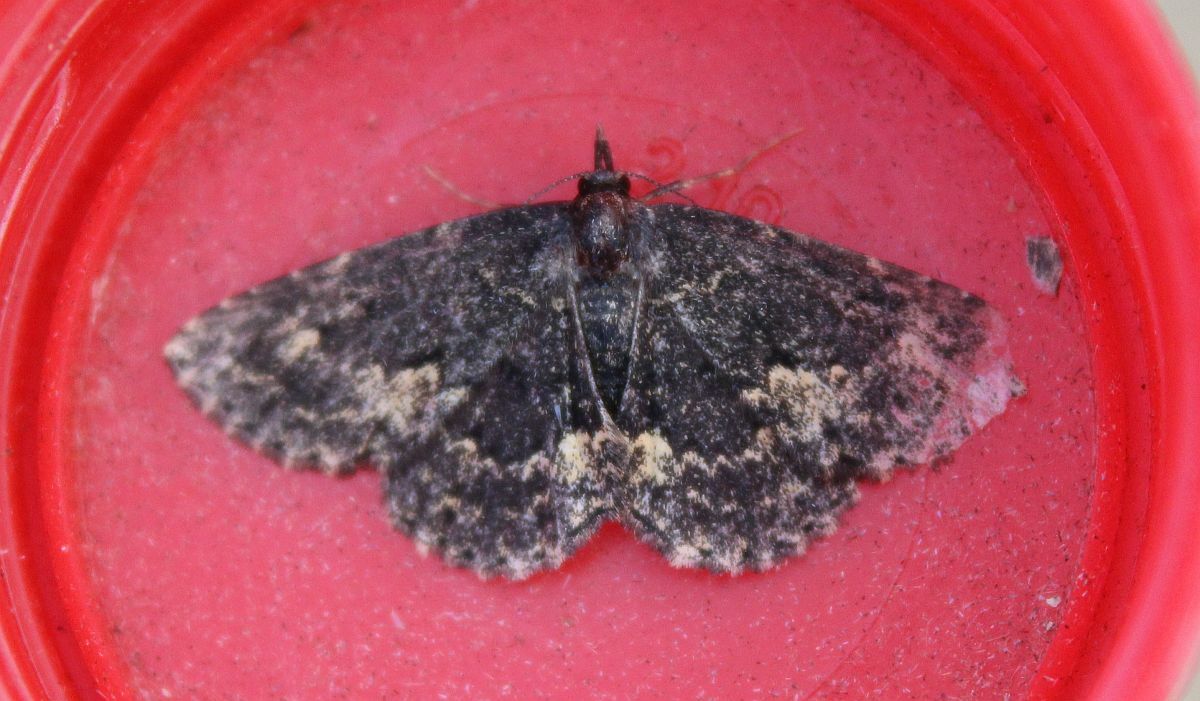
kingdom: Animalia
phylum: Arthropoda
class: Insecta
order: Lepidoptera
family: Erebidae
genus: Parascotia
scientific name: Parascotia fuliginaria
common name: Waved black
